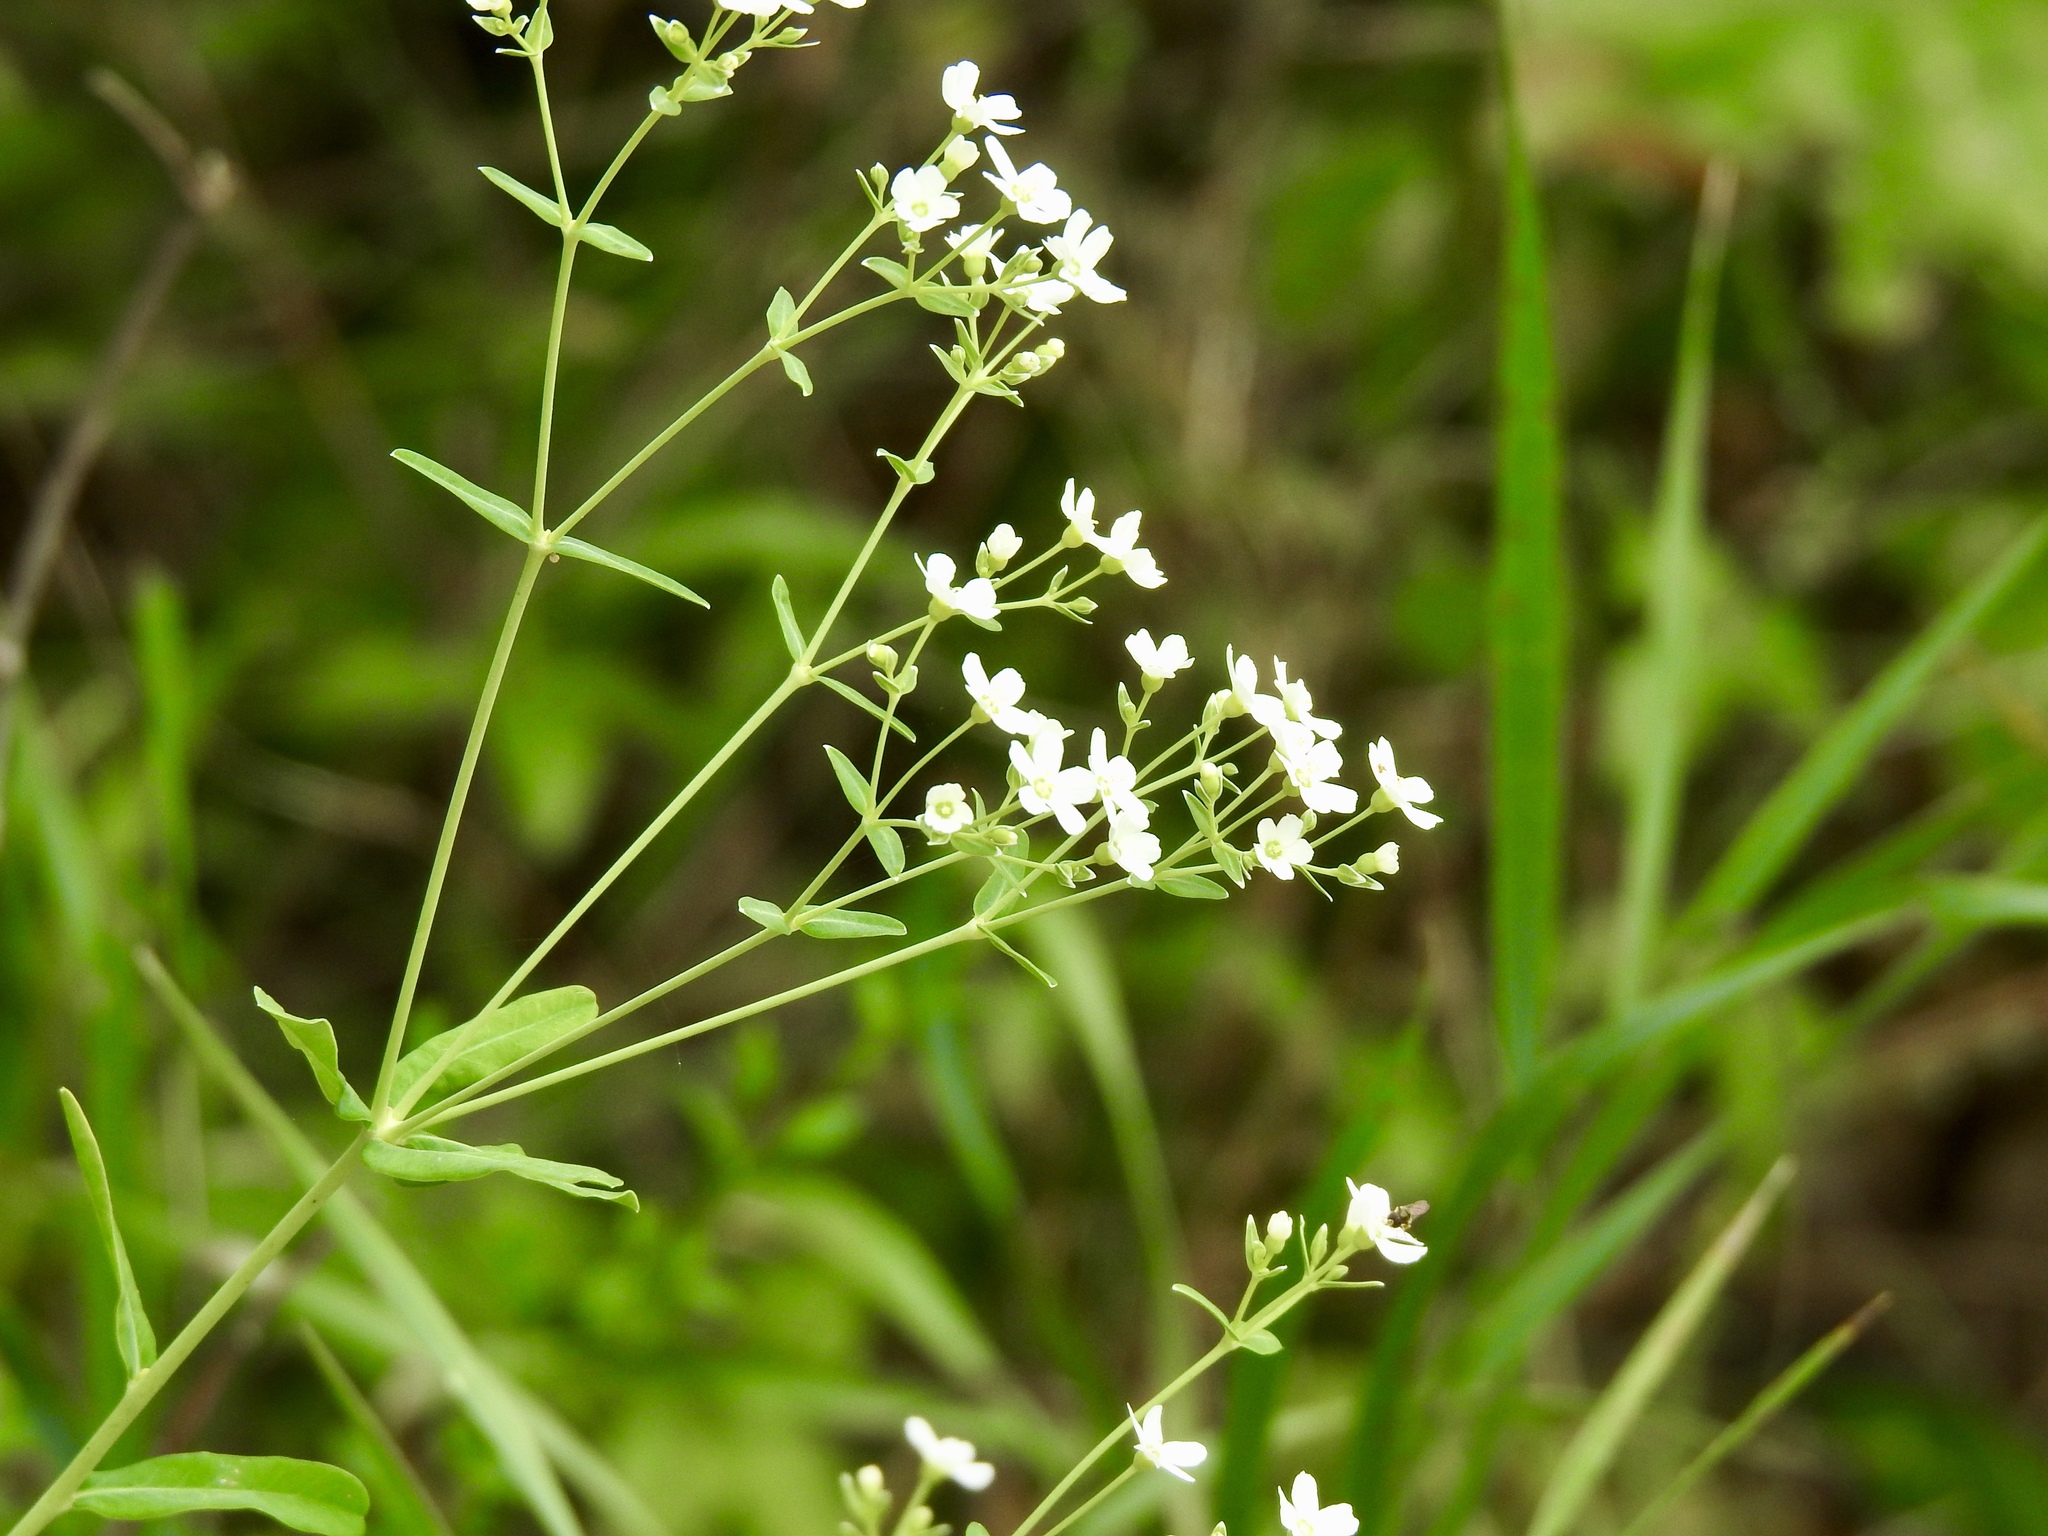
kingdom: Plantae
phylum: Tracheophyta
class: Magnoliopsida
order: Malpighiales
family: Euphorbiaceae
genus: Euphorbia
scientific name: Euphorbia corollata
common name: Flowering spurge
